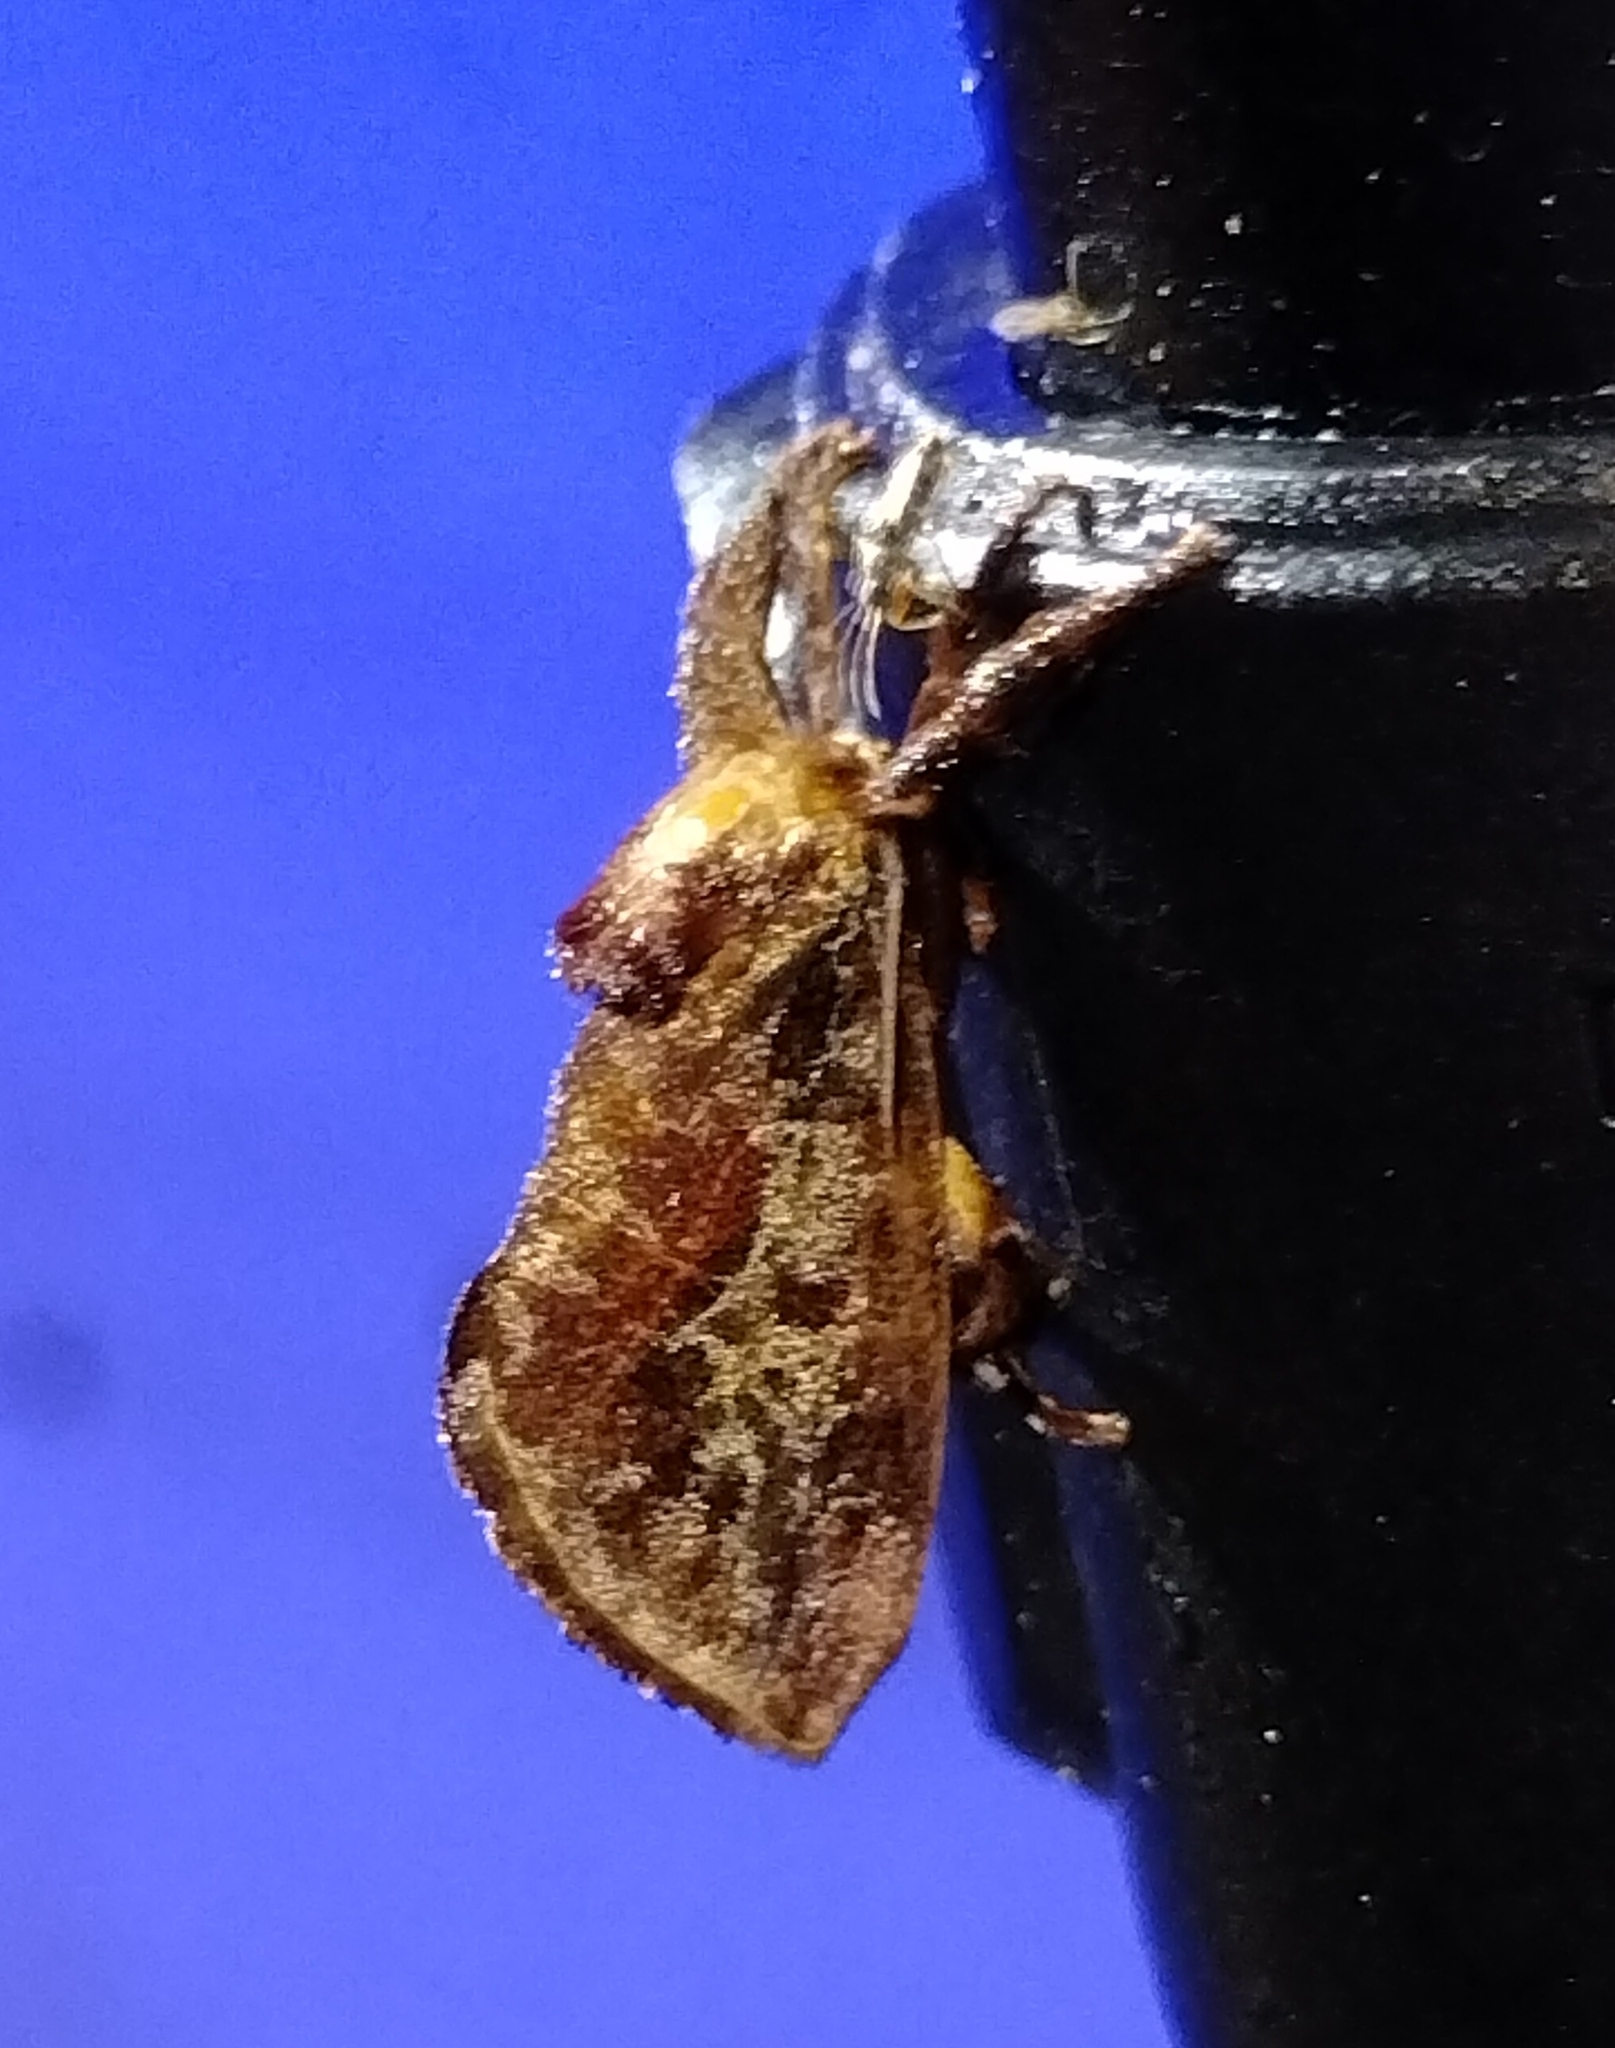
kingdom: Animalia
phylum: Arthropoda
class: Insecta
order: Lepidoptera
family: Limacodidae
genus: Acharia
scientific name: Acharia stimulea
